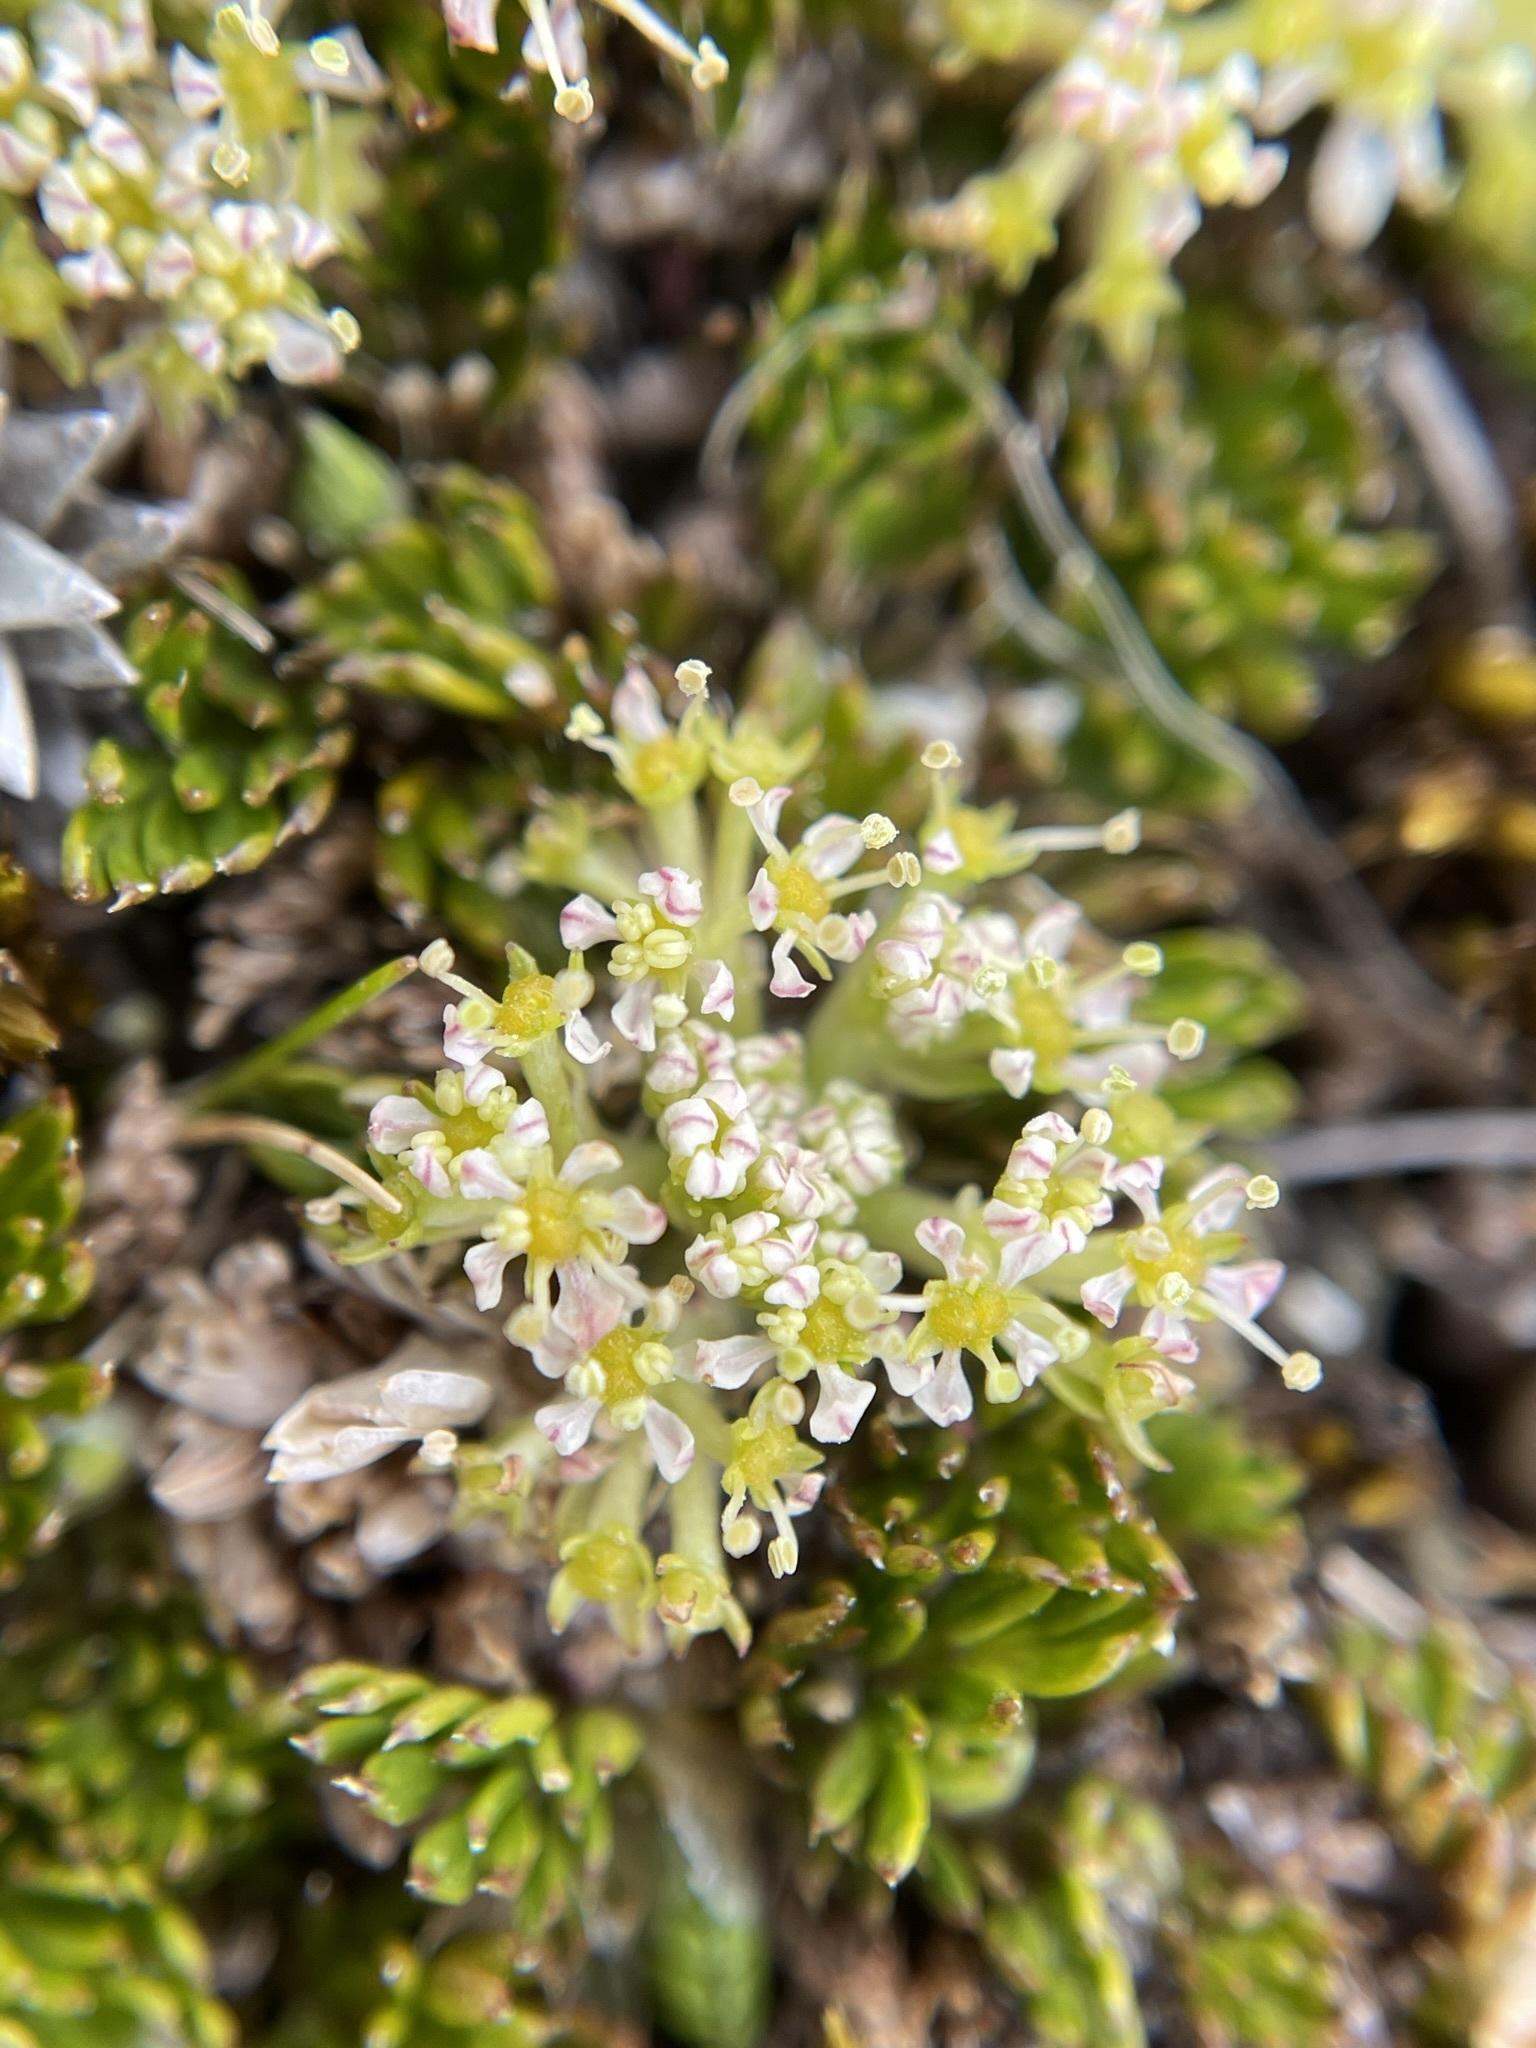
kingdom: Plantae
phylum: Tracheophyta
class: Magnoliopsida
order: Apiales
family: Apiaceae
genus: Anisotome
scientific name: Anisotome imbricata
